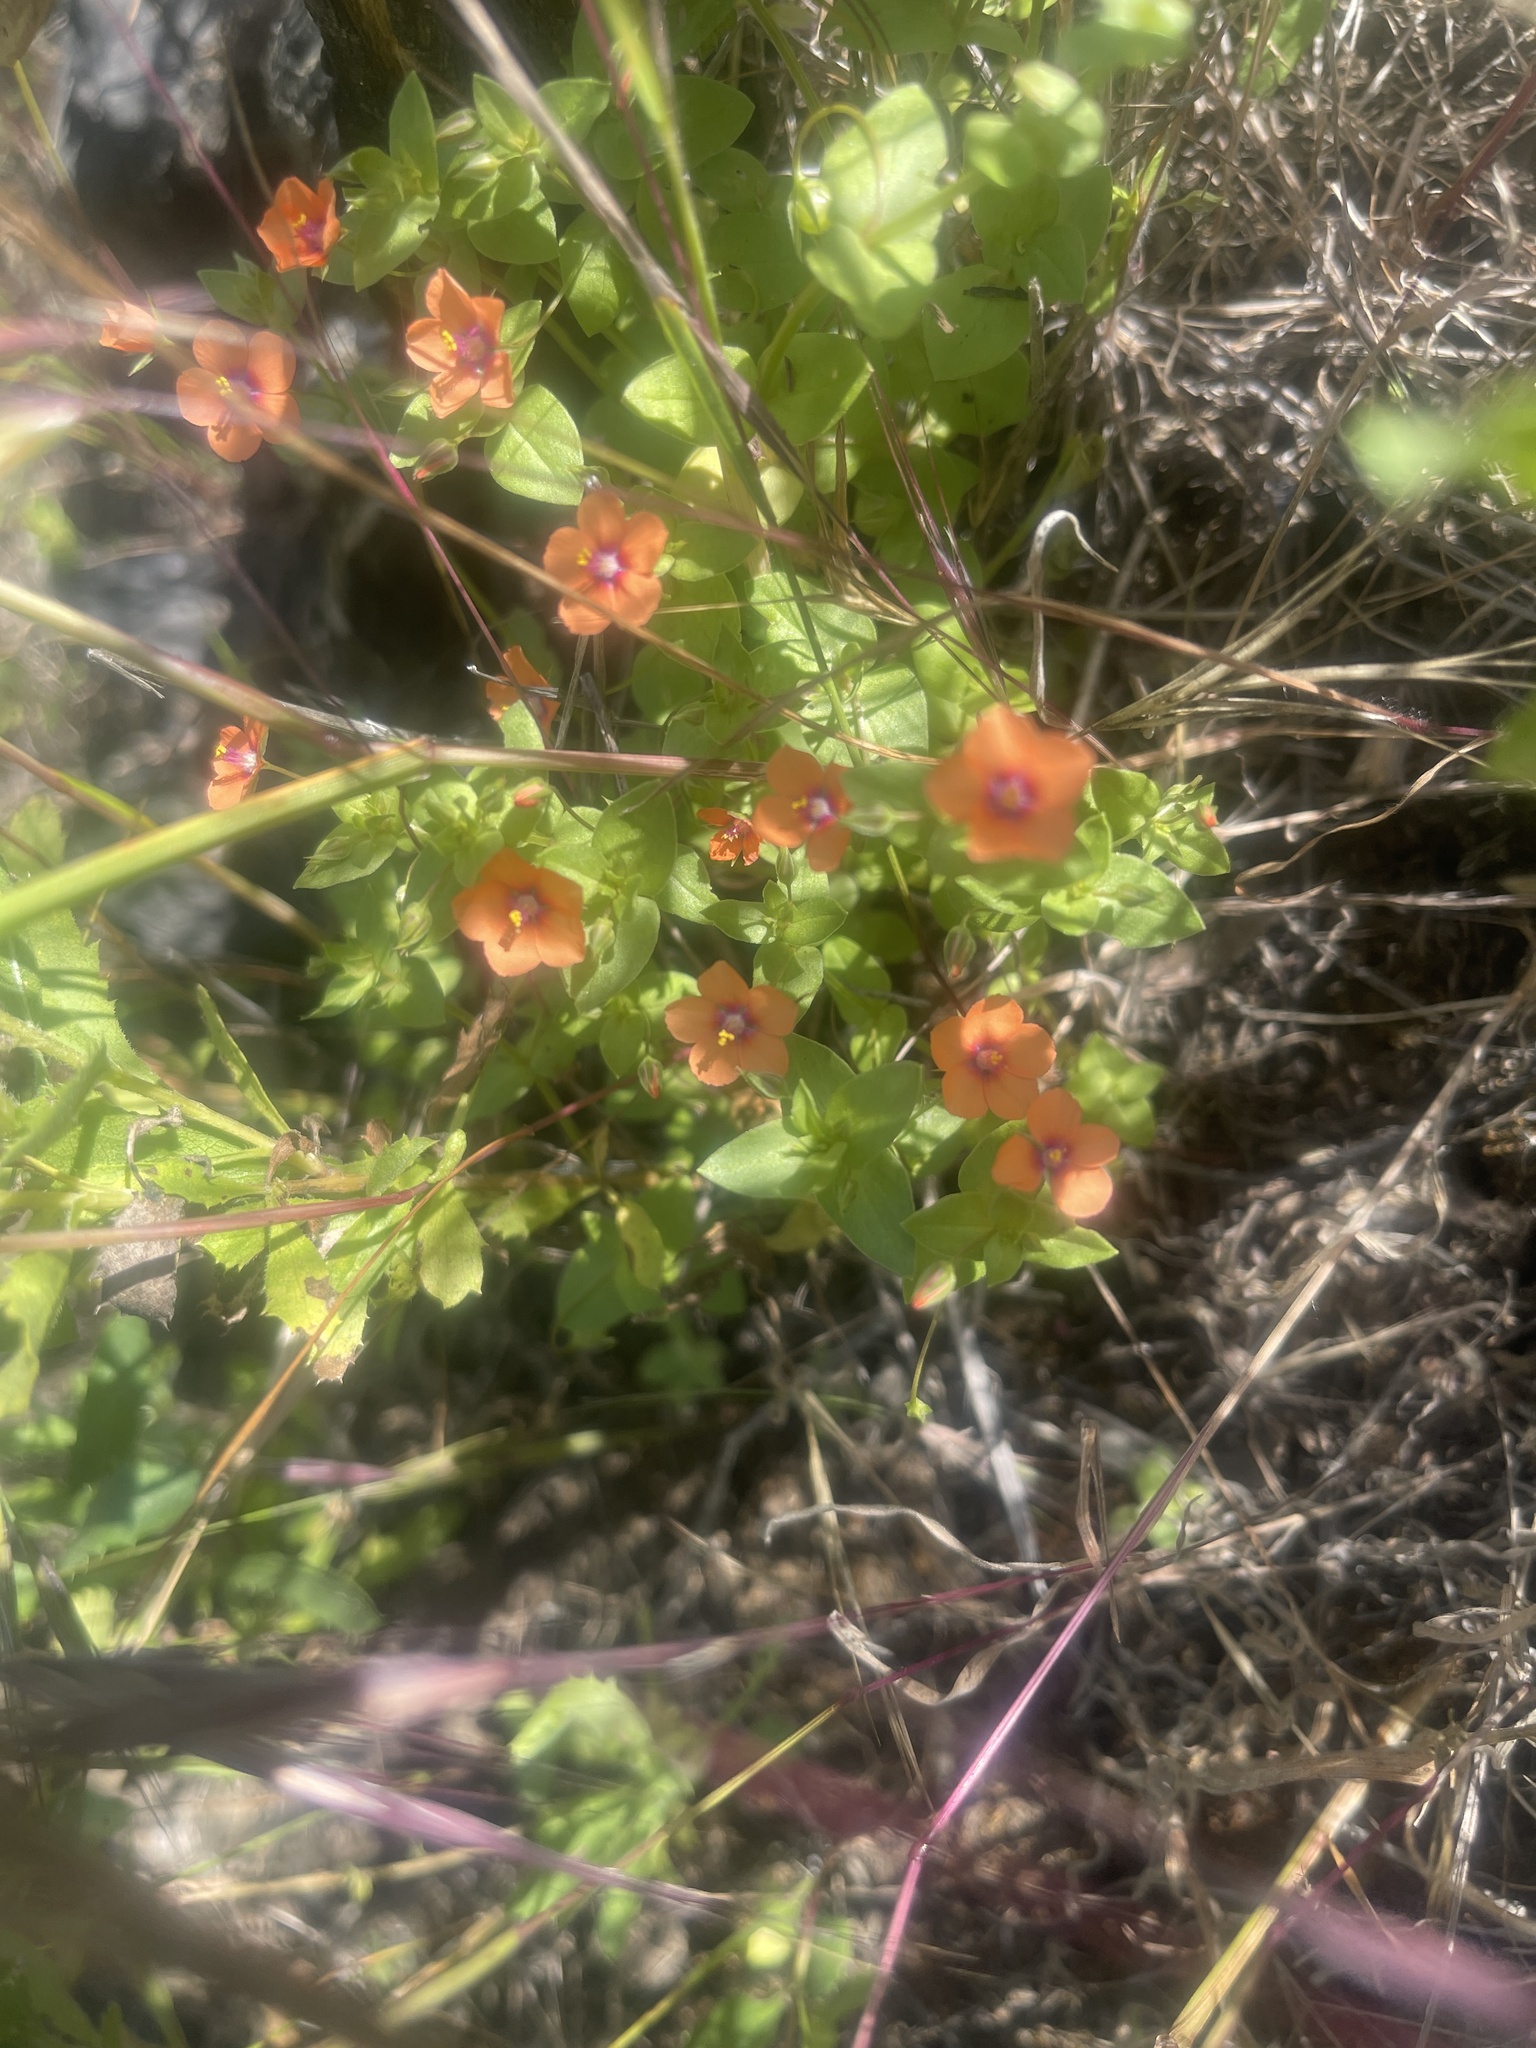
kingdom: Plantae
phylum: Tracheophyta
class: Magnoliopsida
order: Ericales
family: Primulaceae
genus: Lysimachia
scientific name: Lysimachia arvensis
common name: Scarlet pimpernel
